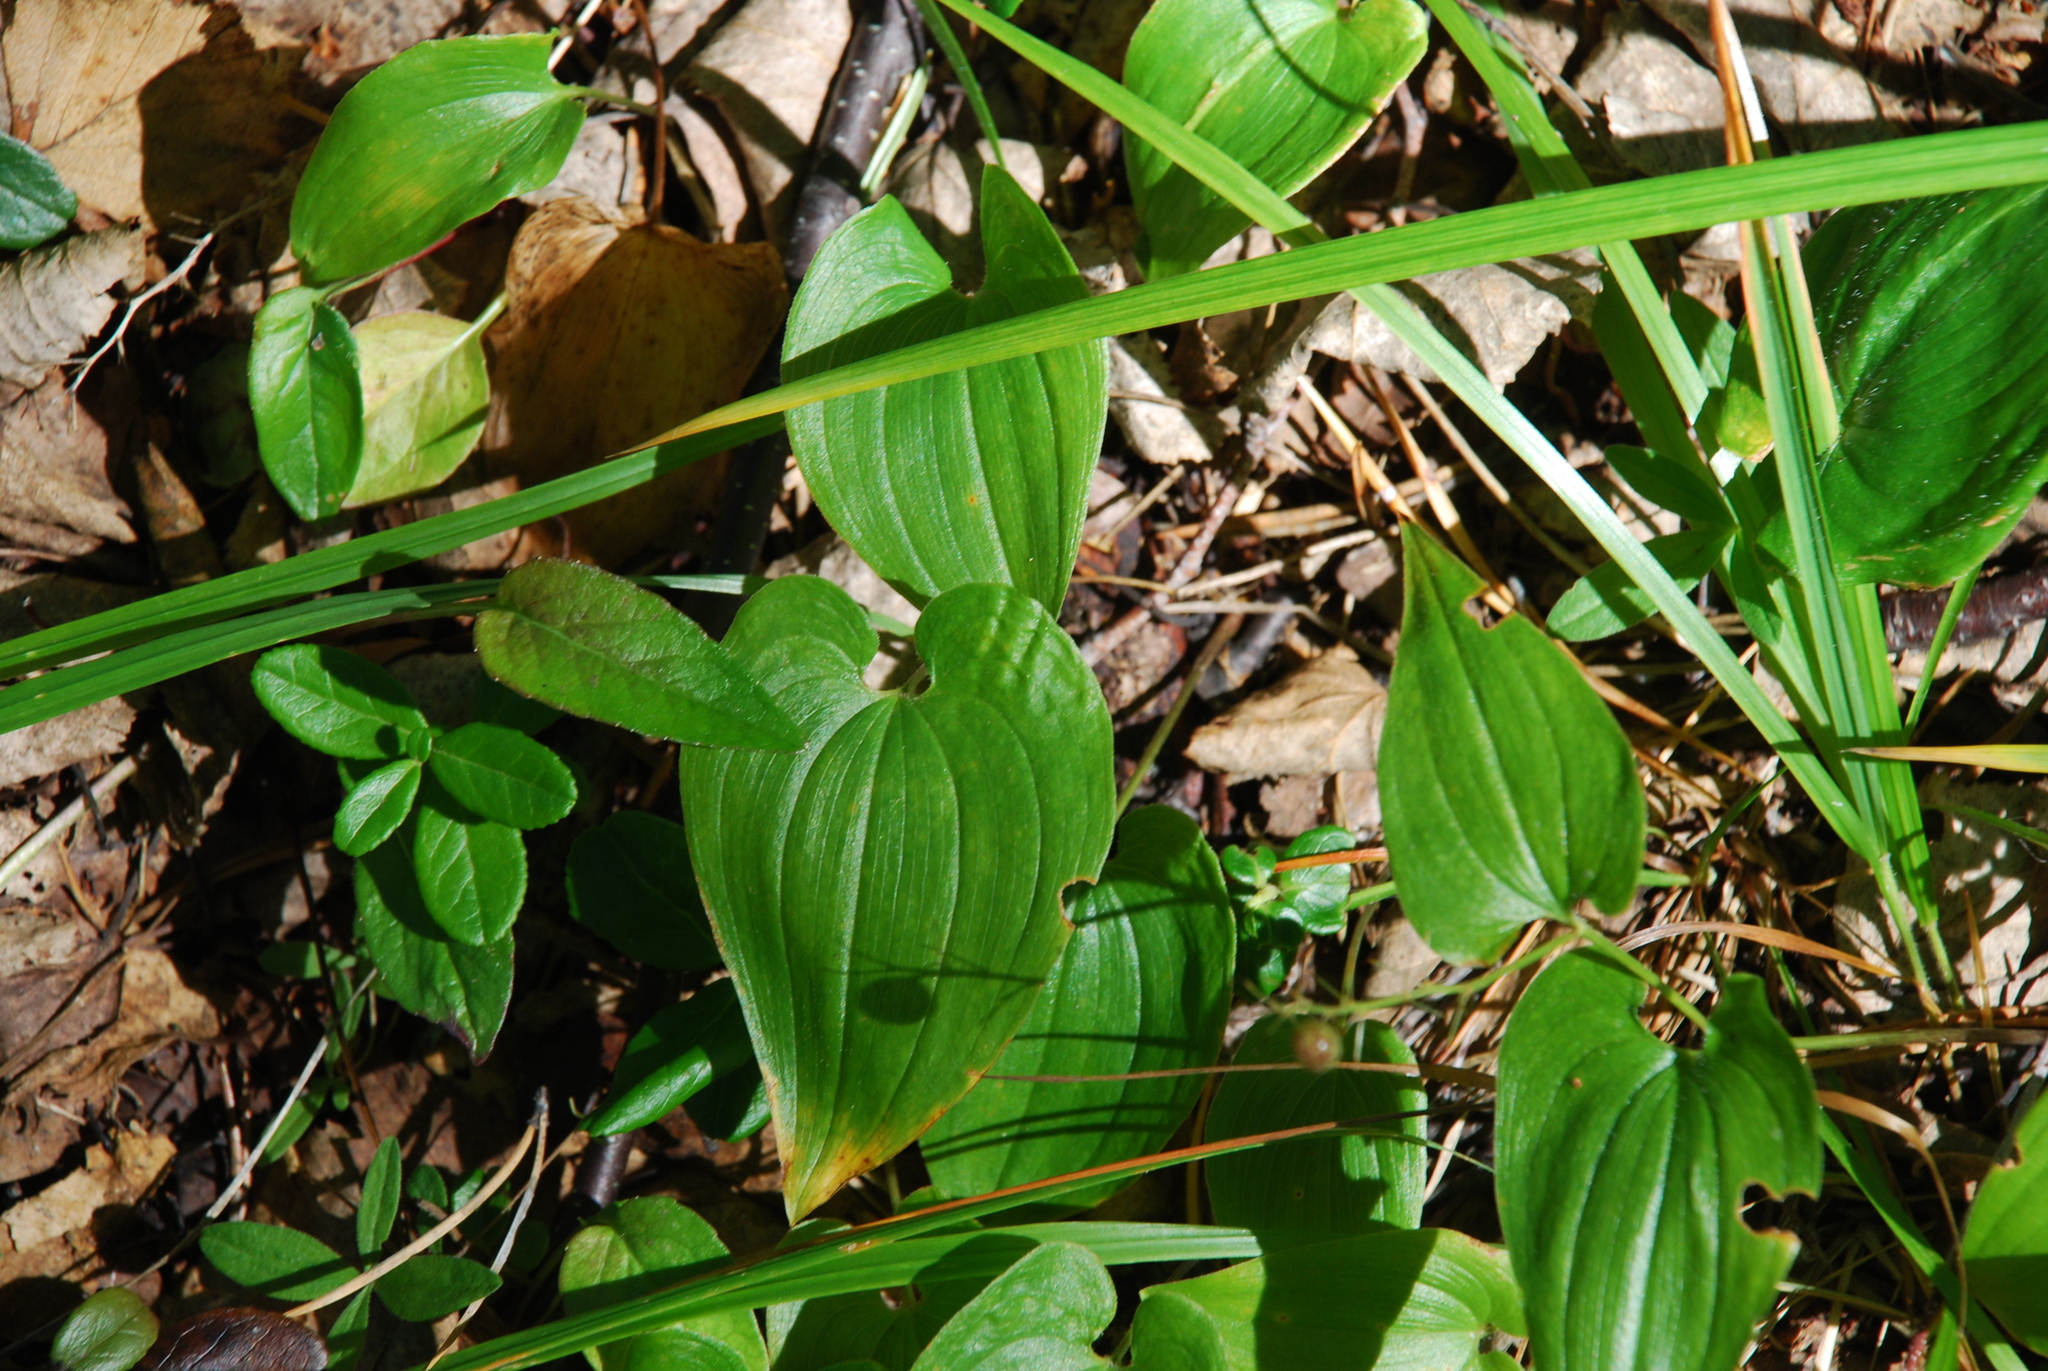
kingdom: Plantae
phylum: Tracheophyta
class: Liliopsida
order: Asparagales
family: Asparagaceae
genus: Maianthemum
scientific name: Maianthemum bifolium
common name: May lily
